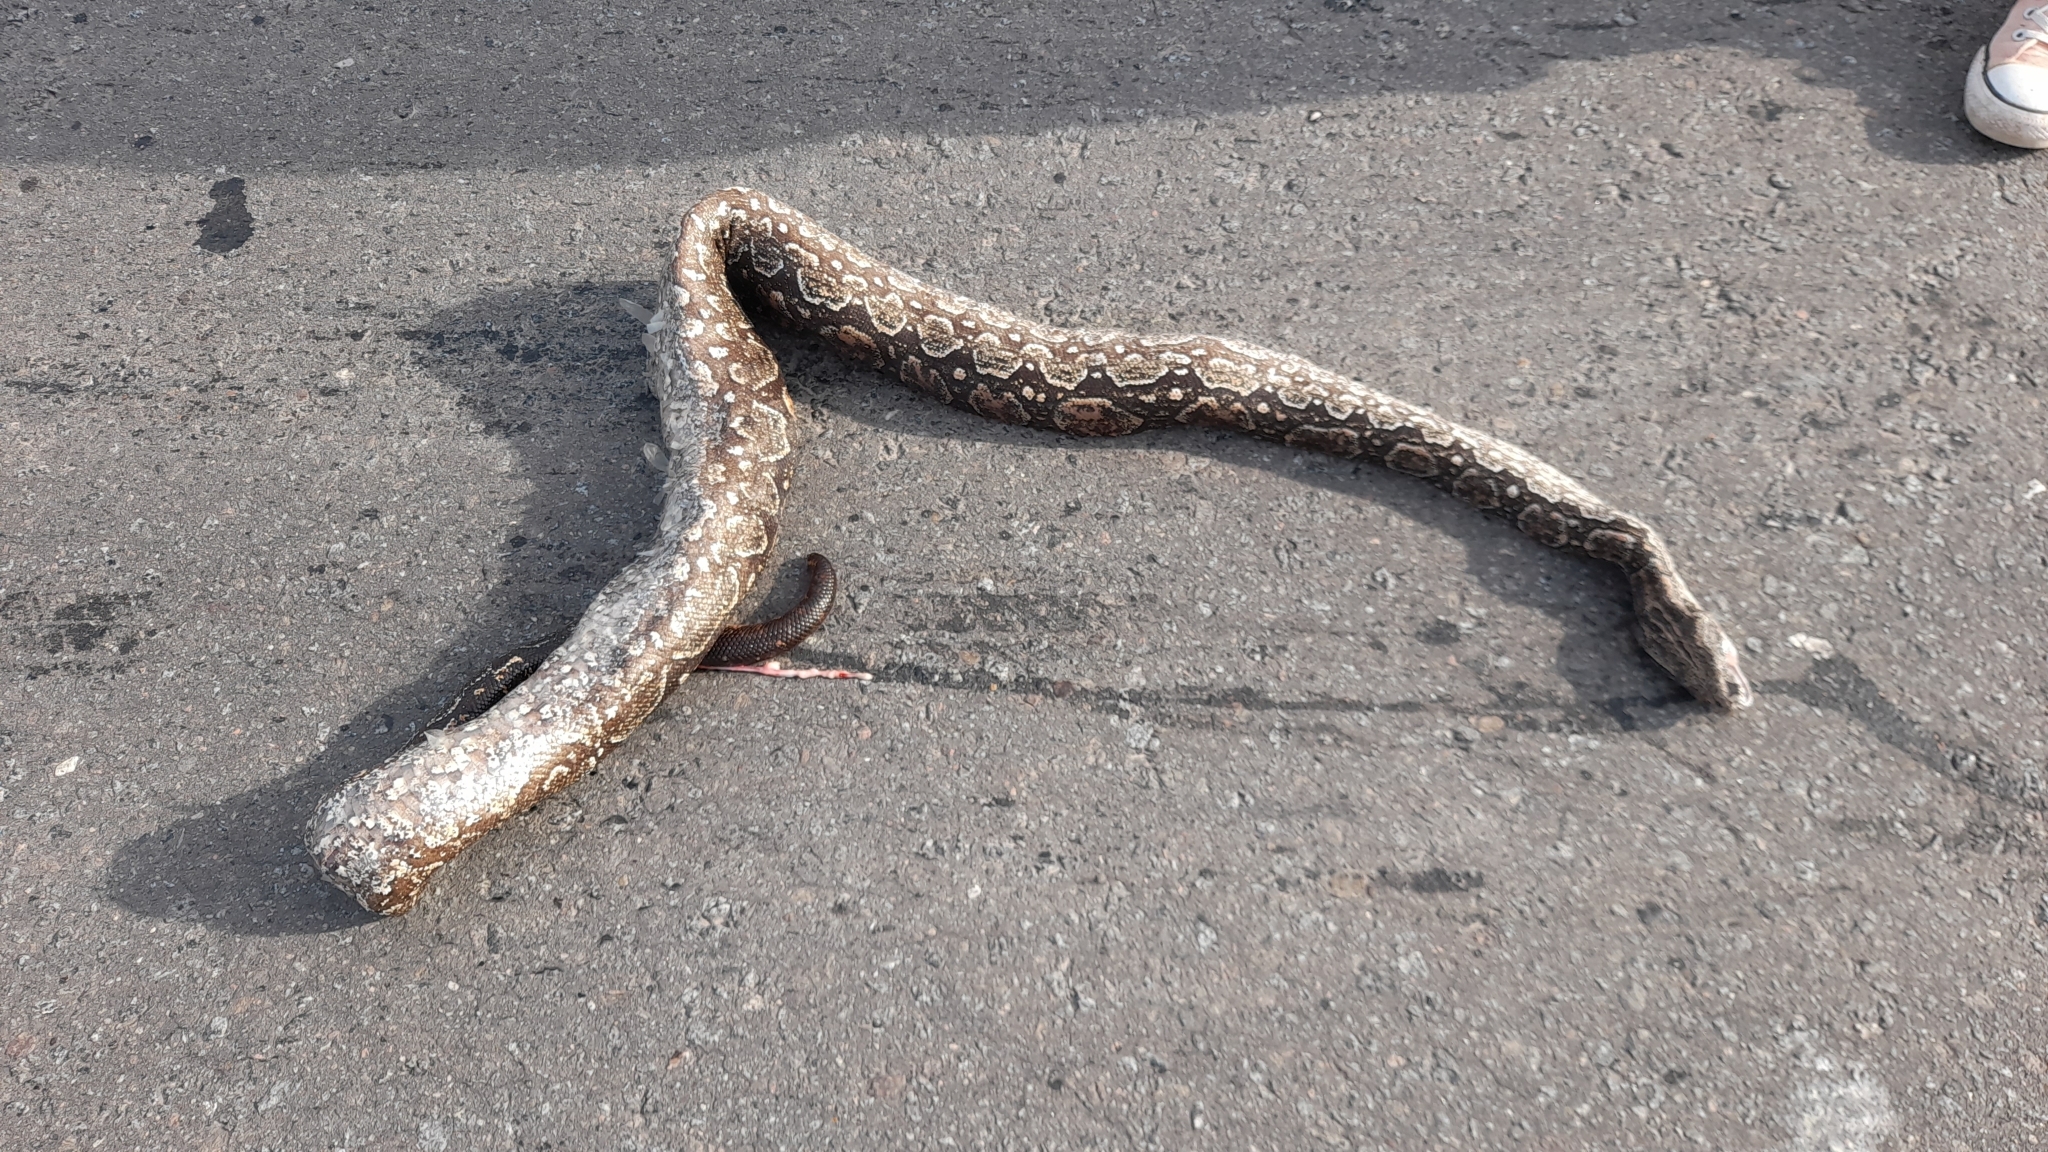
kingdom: Animalia
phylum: Chordata
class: Squamata
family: Boidae
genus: Boa
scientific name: Boa constrictor
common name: Boa constrictor
